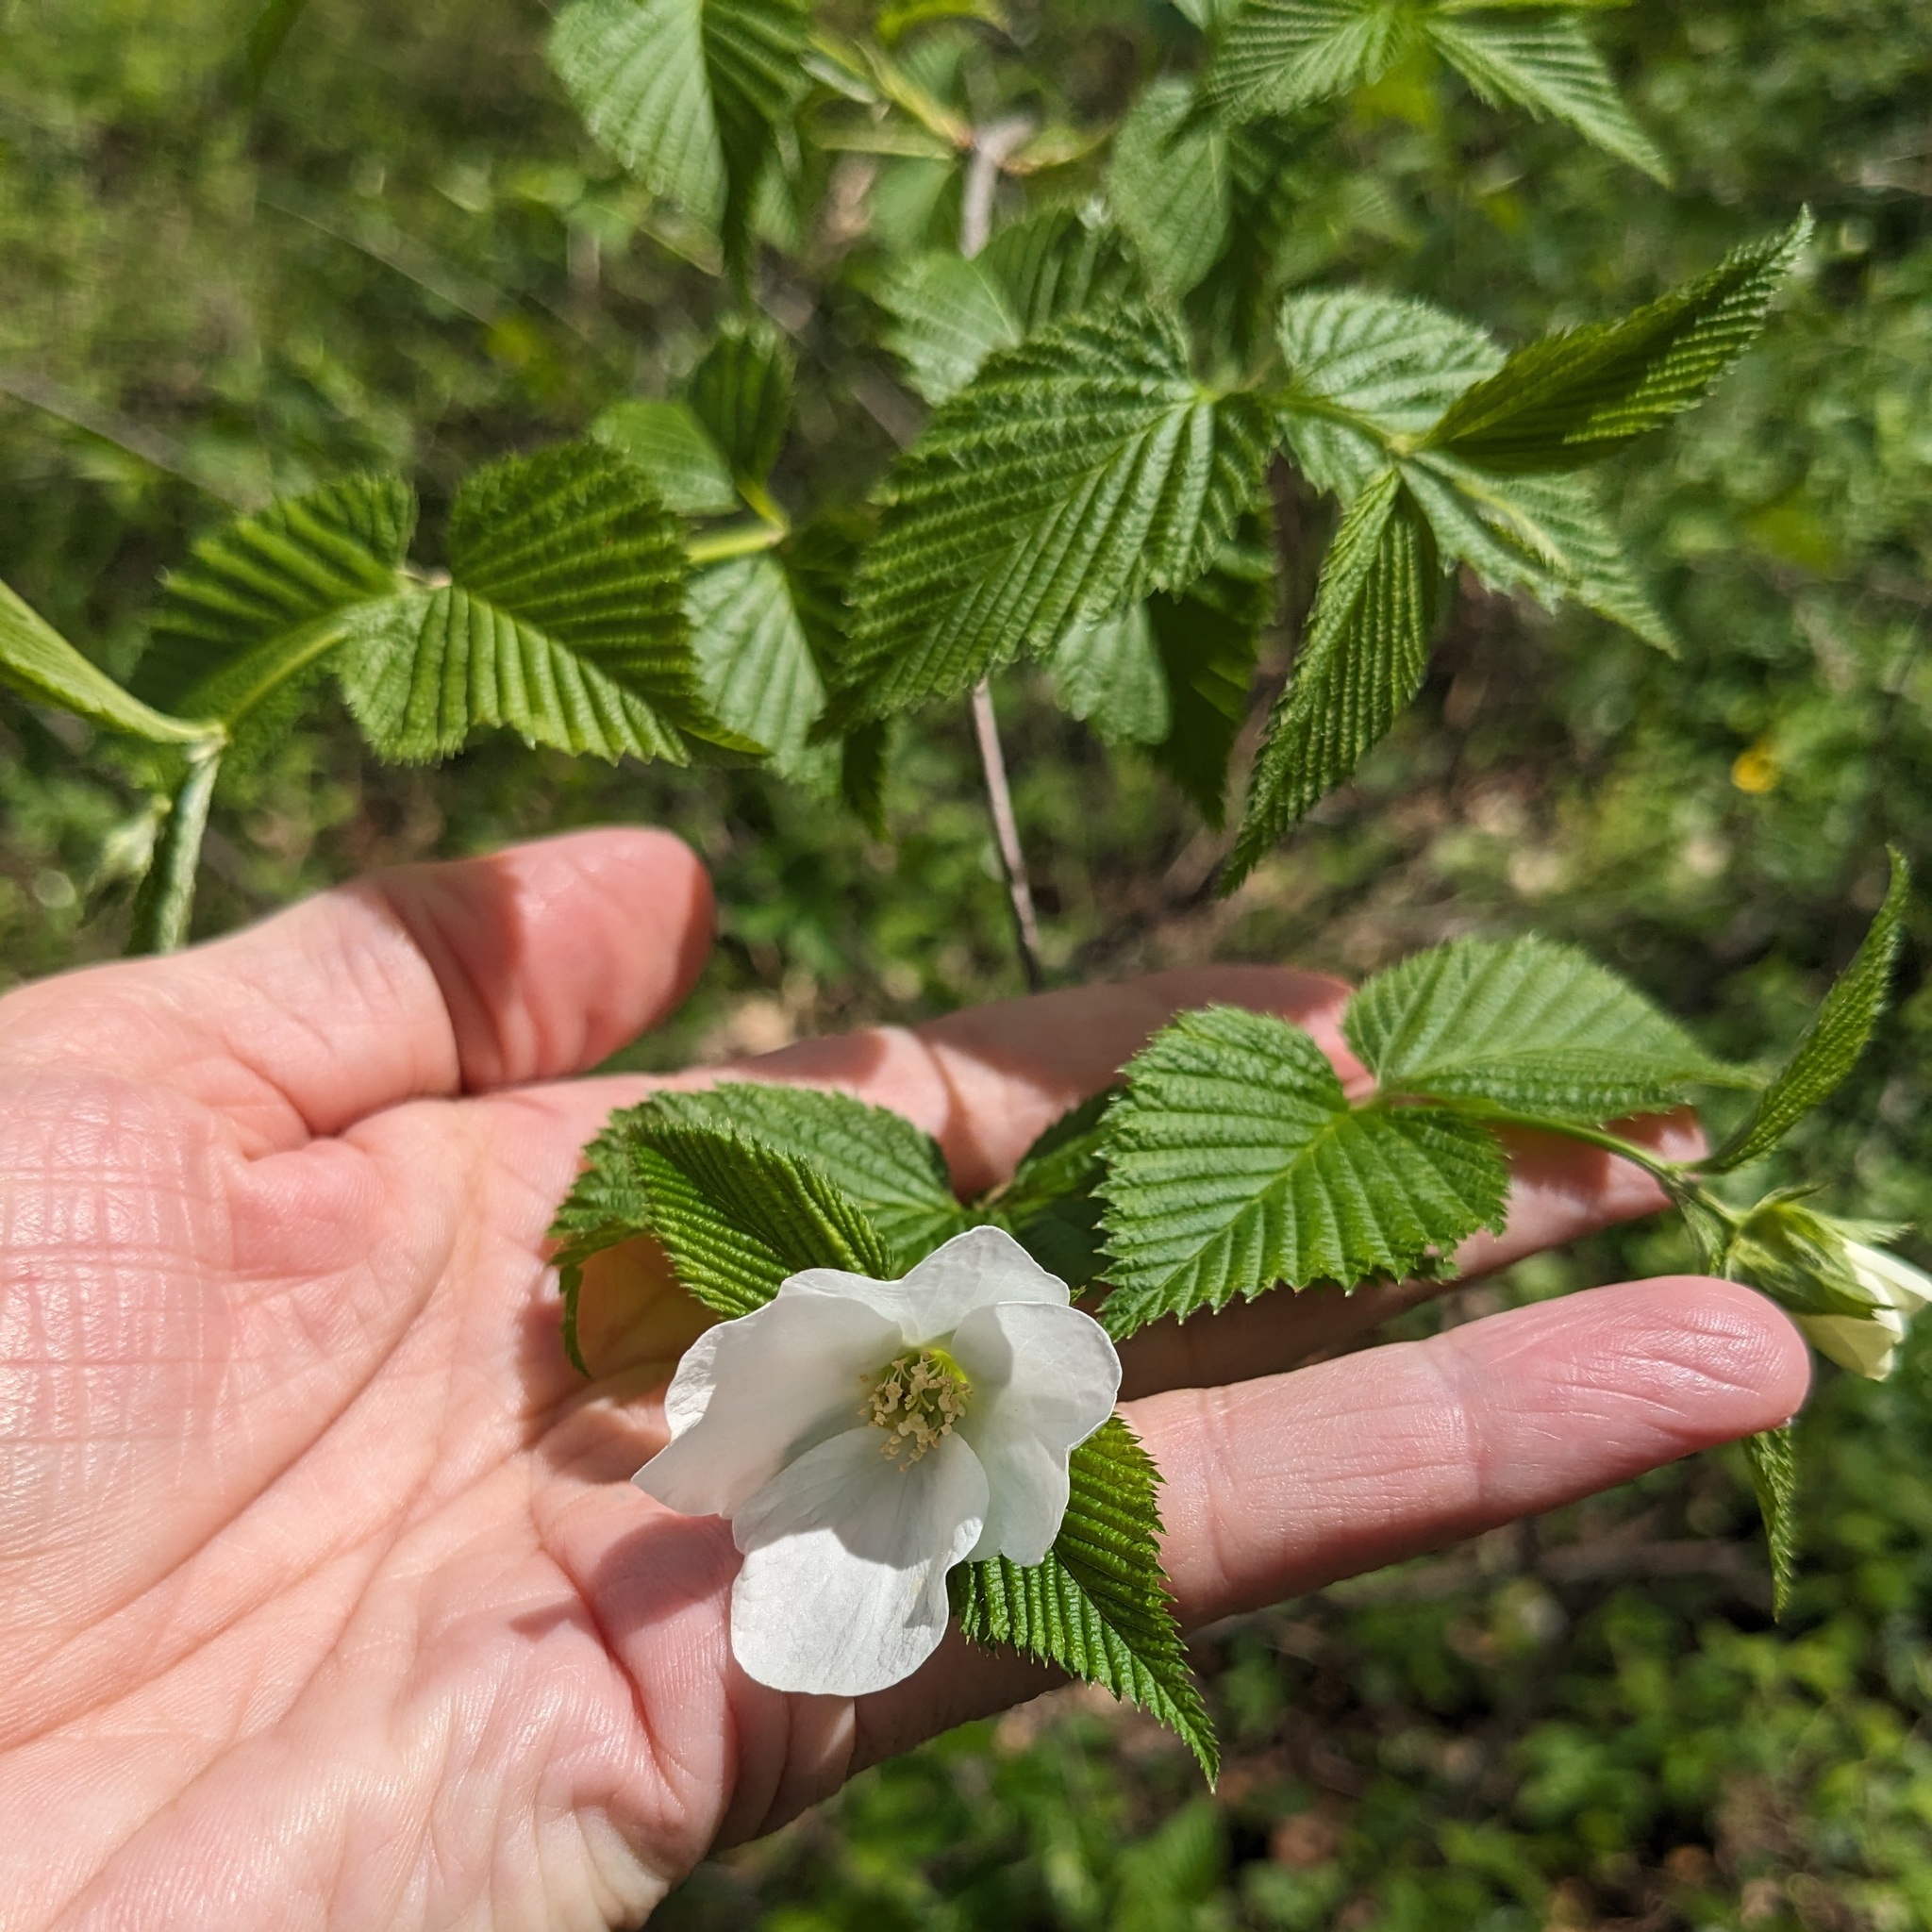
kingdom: Plantae
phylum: Tracheophyta
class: Magnoliopsida
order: Rosales
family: Rosaceae
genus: Rhodotypos
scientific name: Rhodotypos scandens
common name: Jetbead
